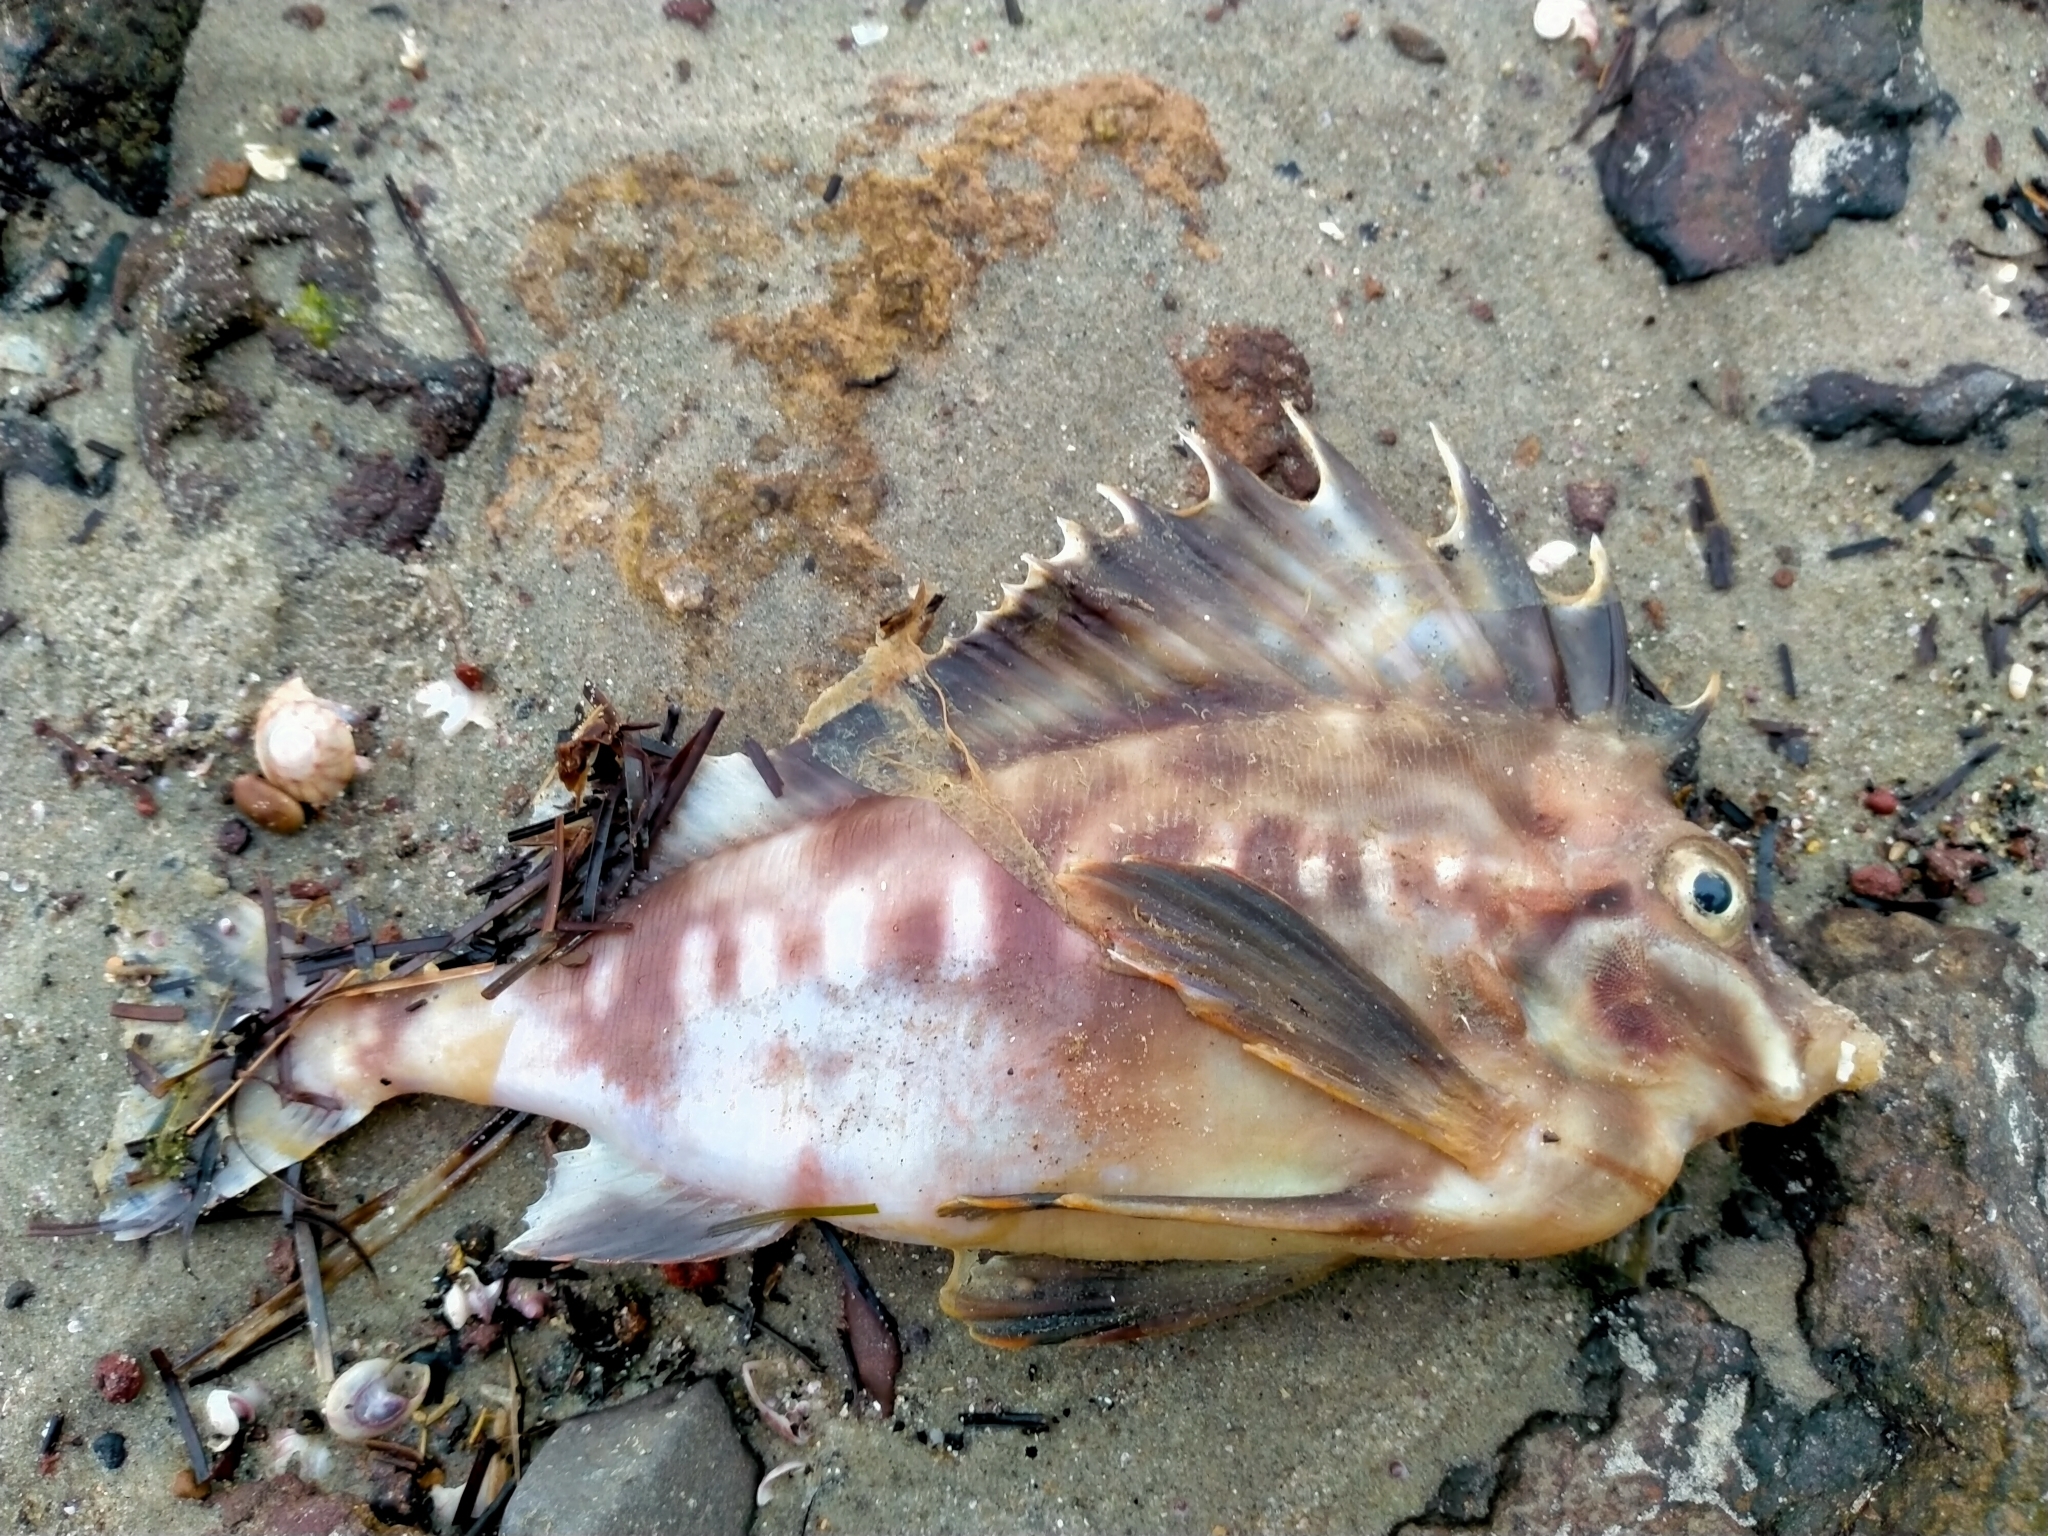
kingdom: Animalia
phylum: Chordata
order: Scorpaeniformes
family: Congiopodidae
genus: Congiopodus
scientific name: Congiopodus leucopaecilus
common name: Southern pigfish
